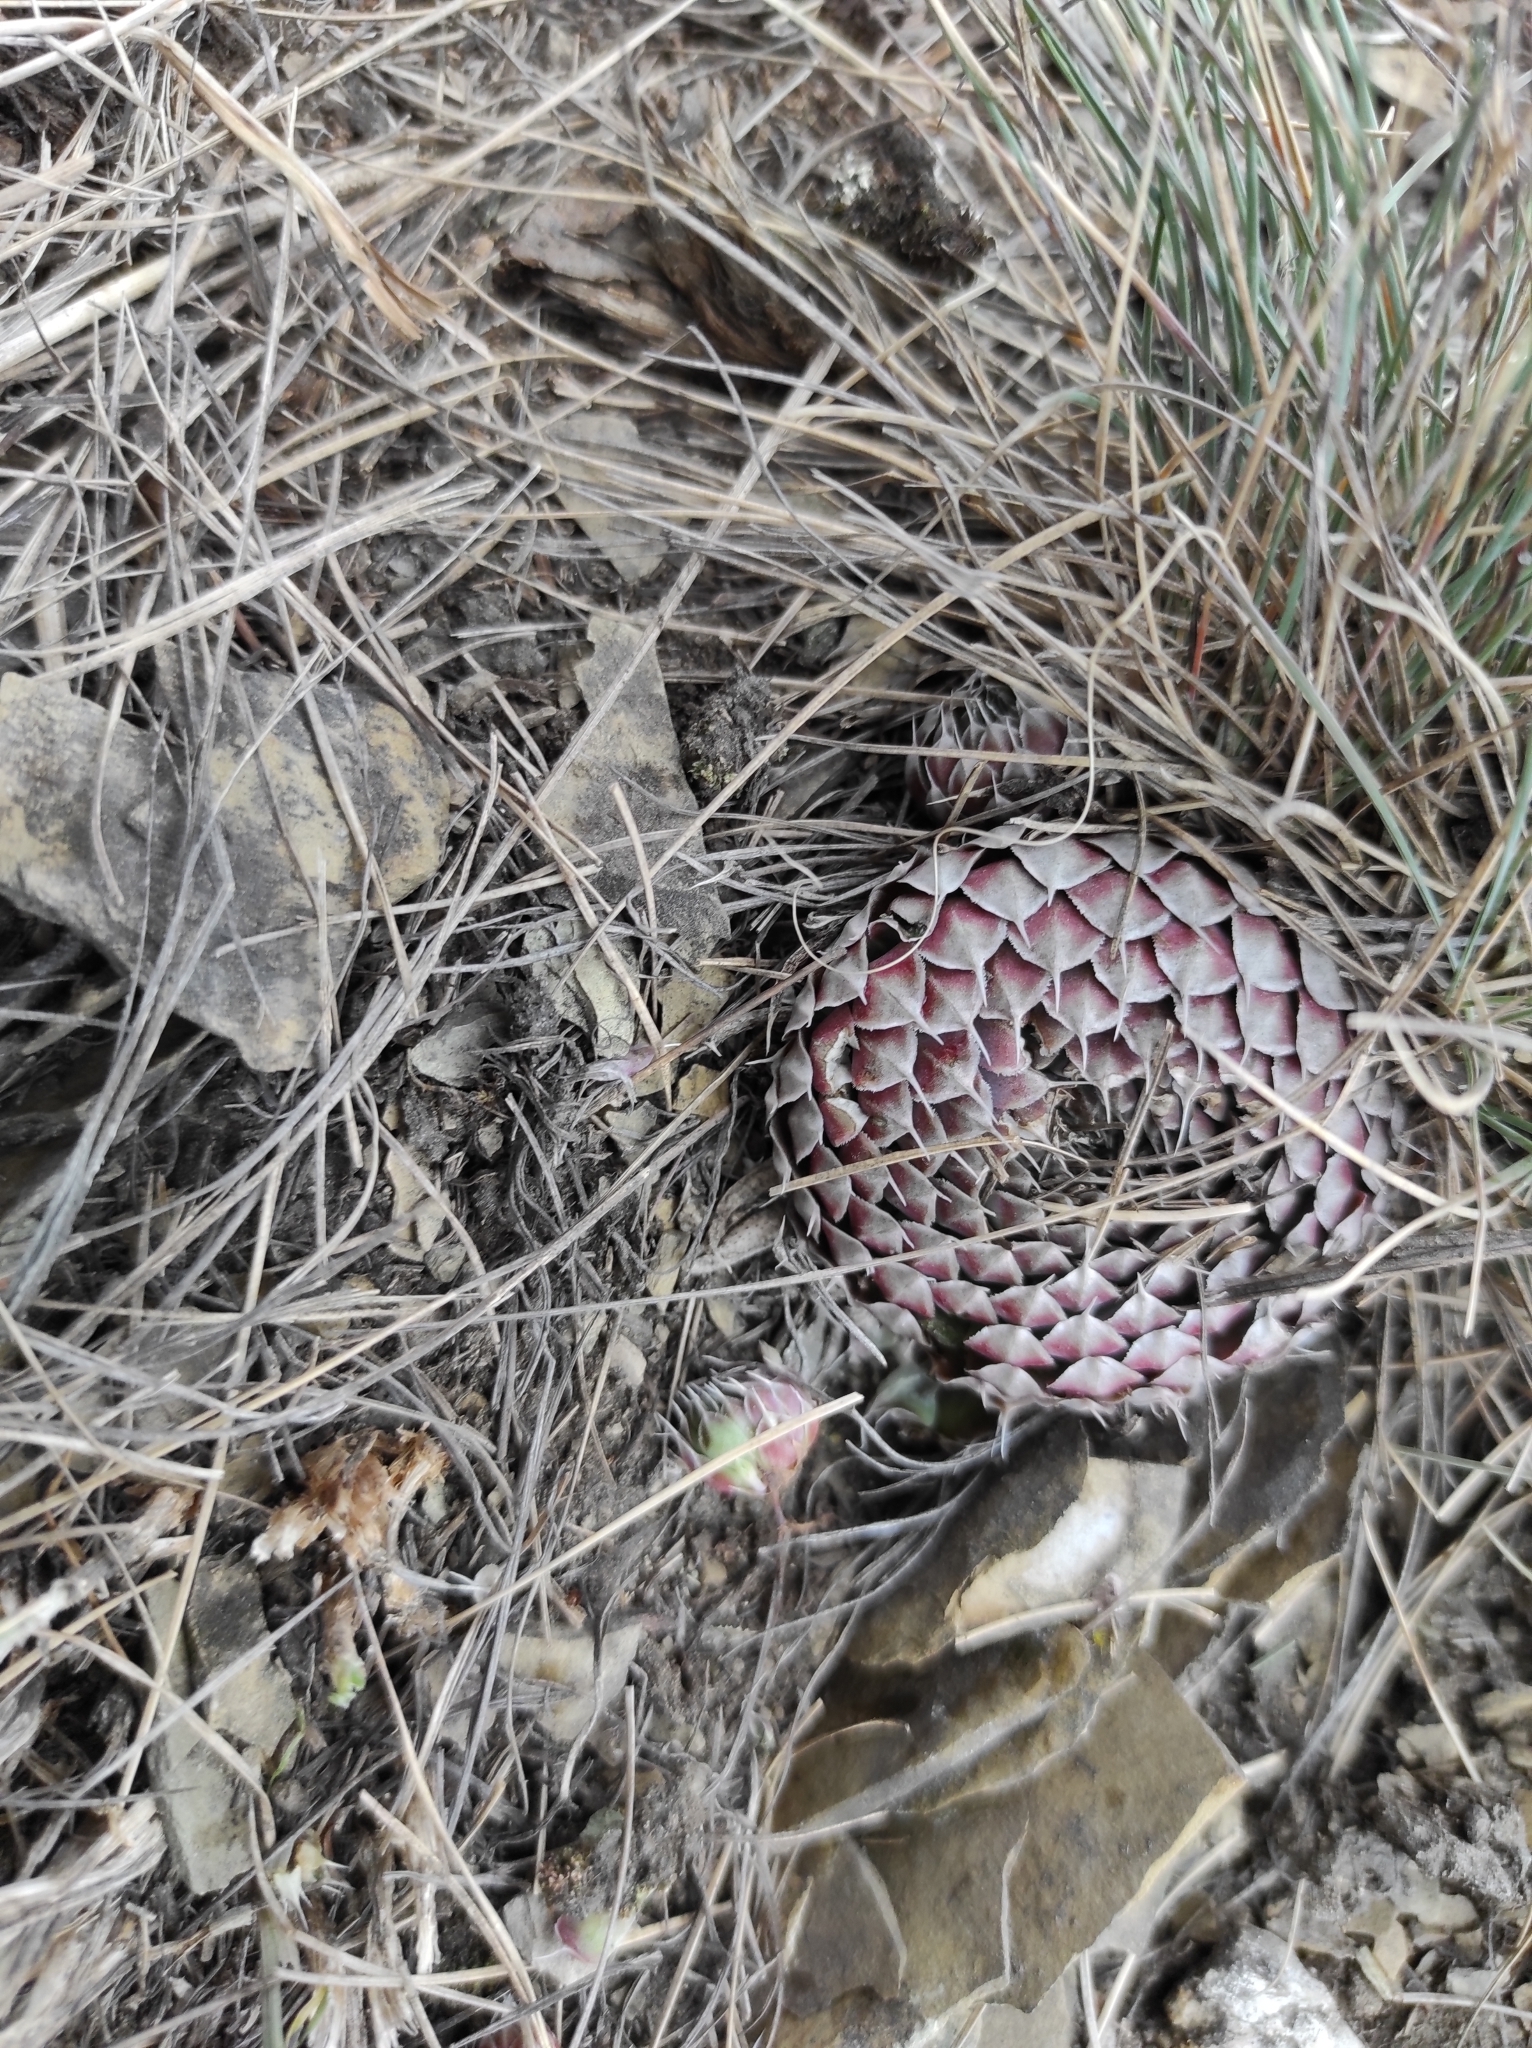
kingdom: Plantae
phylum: Tracheophyta
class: Magnoliopsida
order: Saxifragales
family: Crassulaceae
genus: Orostachys
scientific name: Orostachys spinosa
